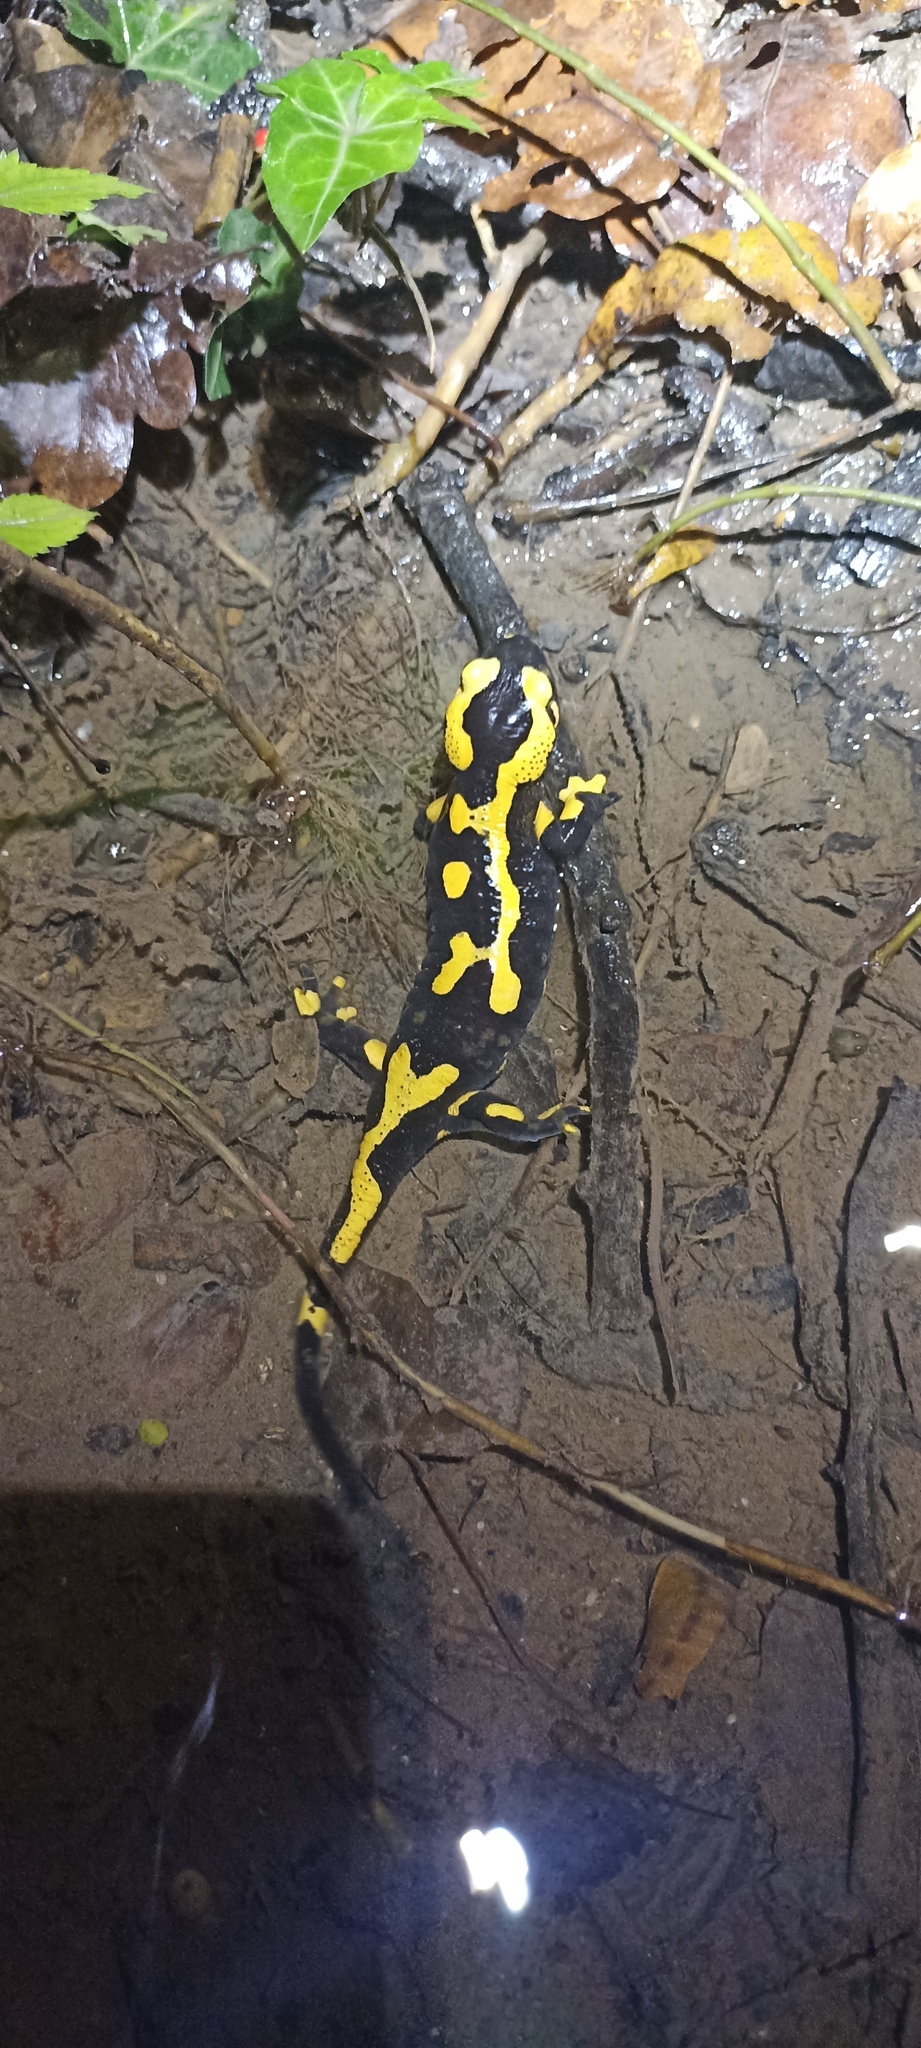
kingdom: Animalia
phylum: Chordata
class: Amphibia
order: Caudata
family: Salamandridae
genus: Salamandra
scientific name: Salamandra salamandra
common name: Fire salamander
